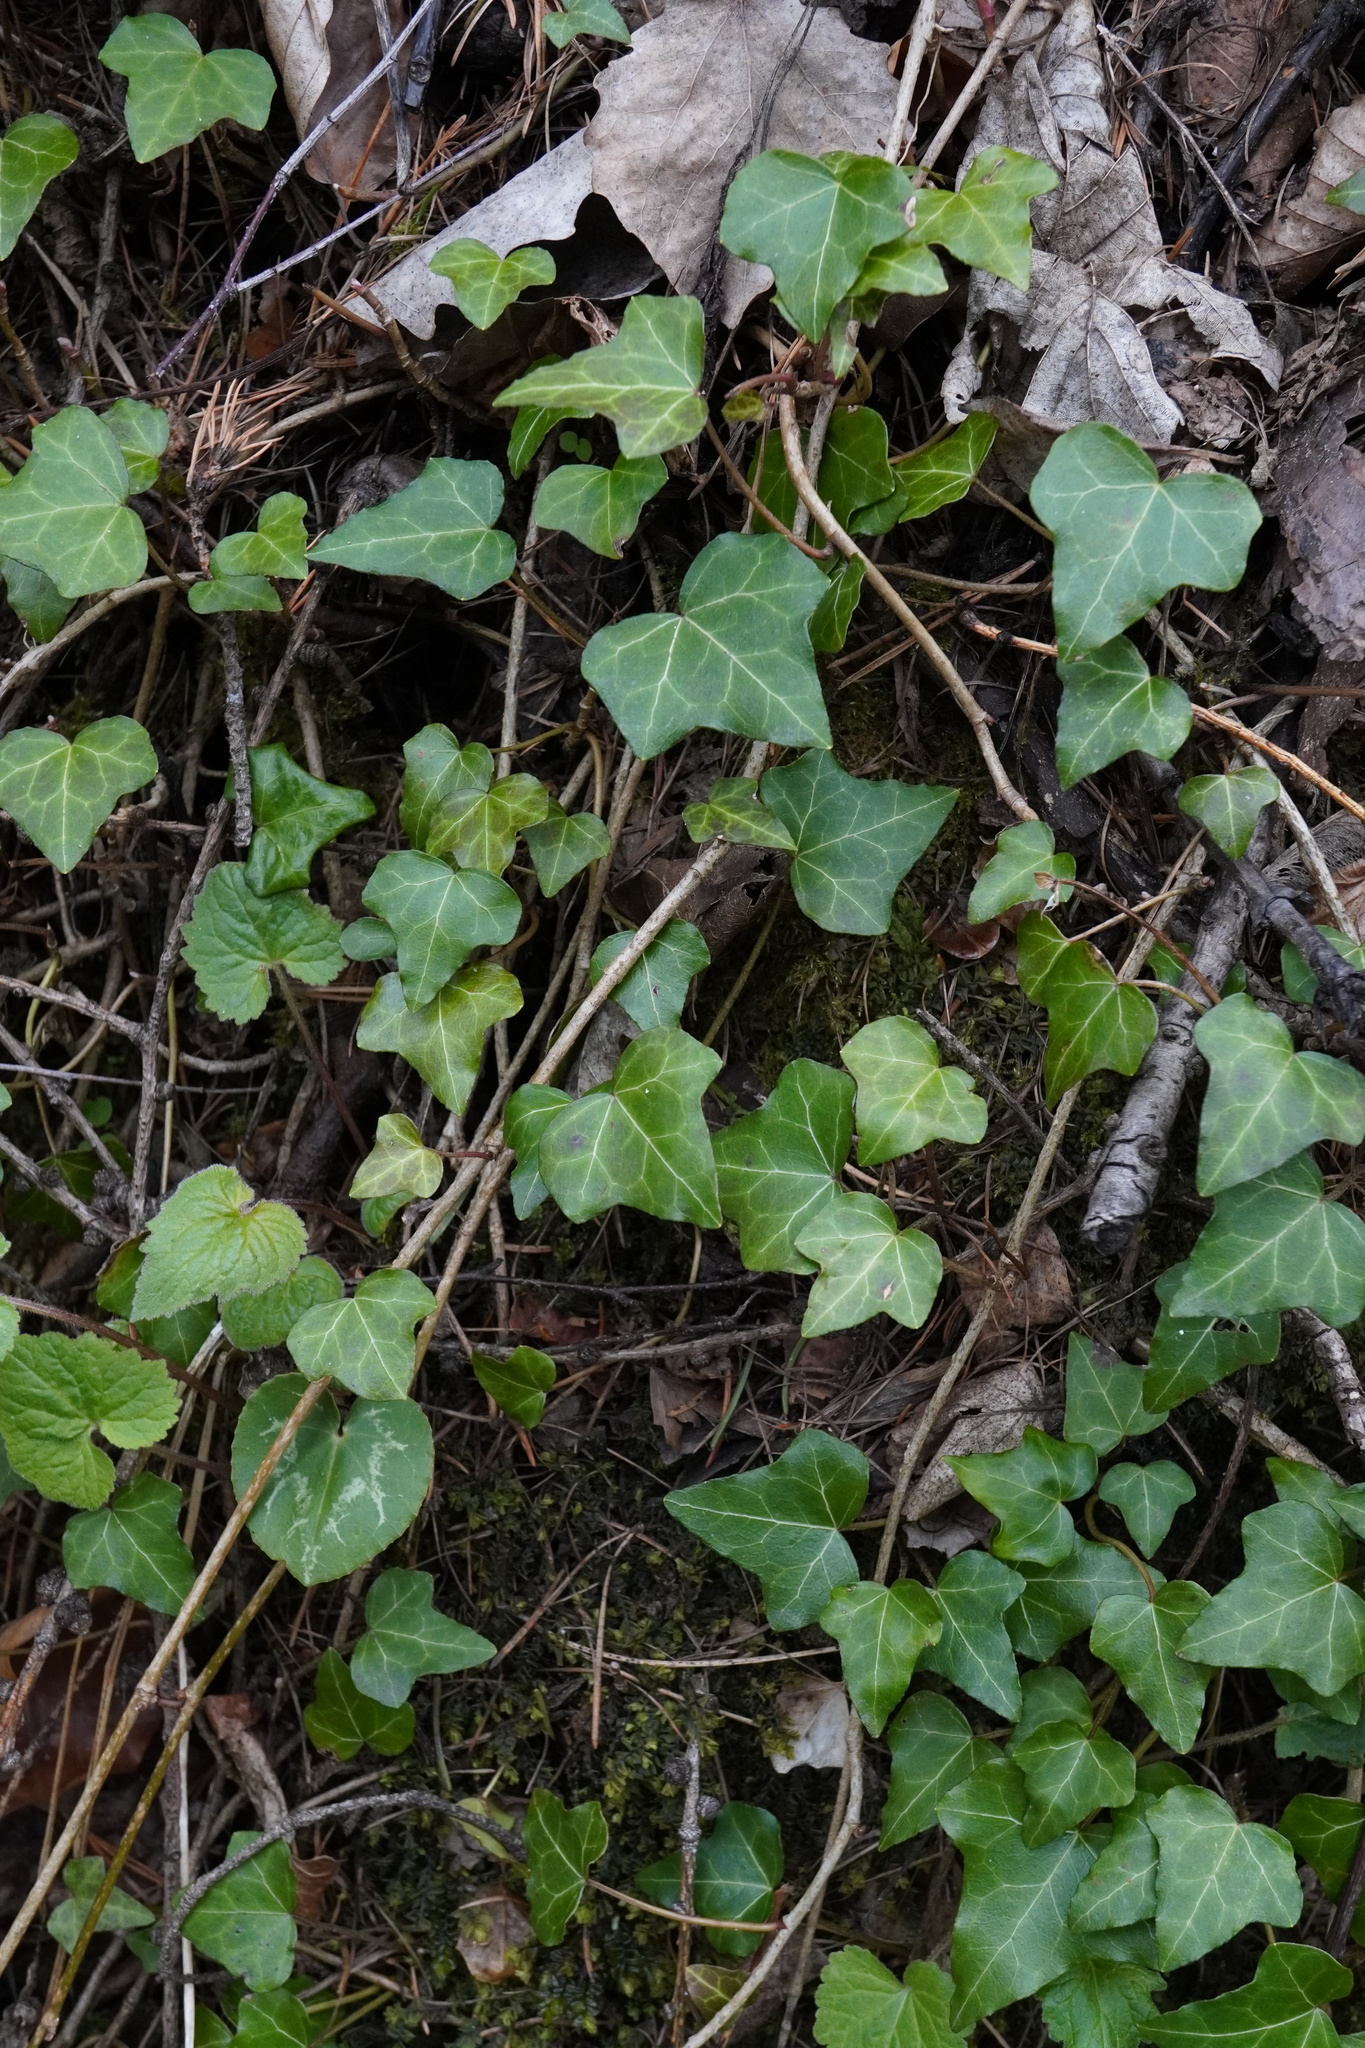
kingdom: Plantae
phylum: Tracheophyta
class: Magnoliopsida
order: Apiales
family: Araliaceae
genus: Hedera
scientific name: Hedera helix
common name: Ivy
